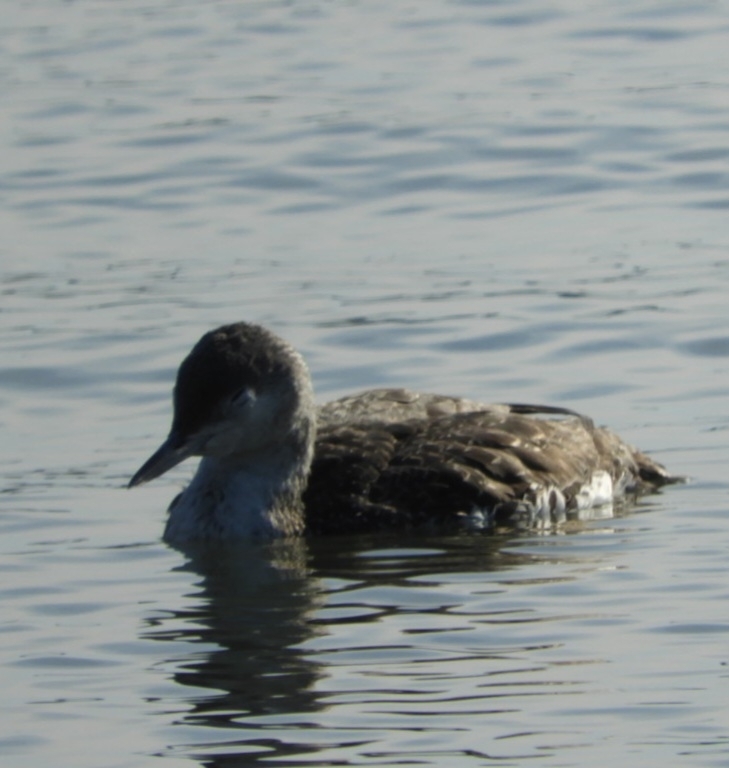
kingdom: Animalia
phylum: Chordata
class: Aves
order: Gaviiformes
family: Gaviidae
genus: Gavia
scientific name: Gavia stellata
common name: Red-throated loon
